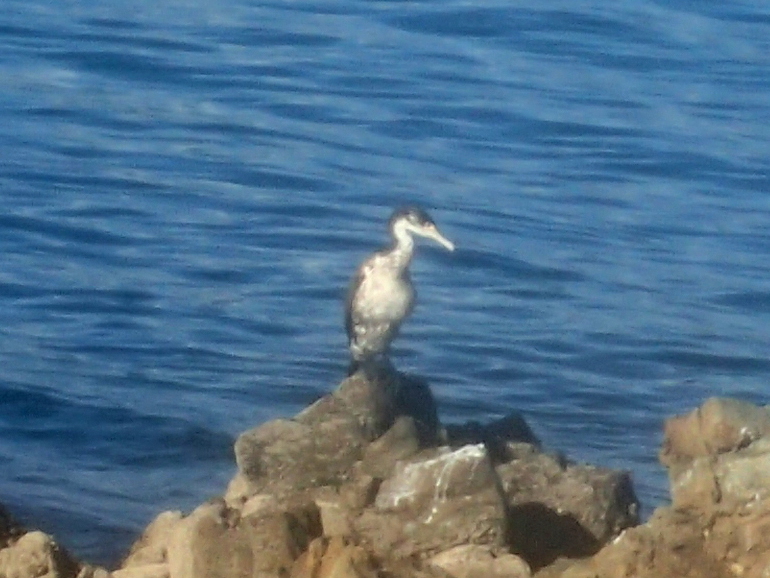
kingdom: Animalia
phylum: Chordata
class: Aves
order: Suliformes
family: Phalacrocoracidae
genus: Phalacrocorax
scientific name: Phalacrocorax varius
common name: Pied cormorant
